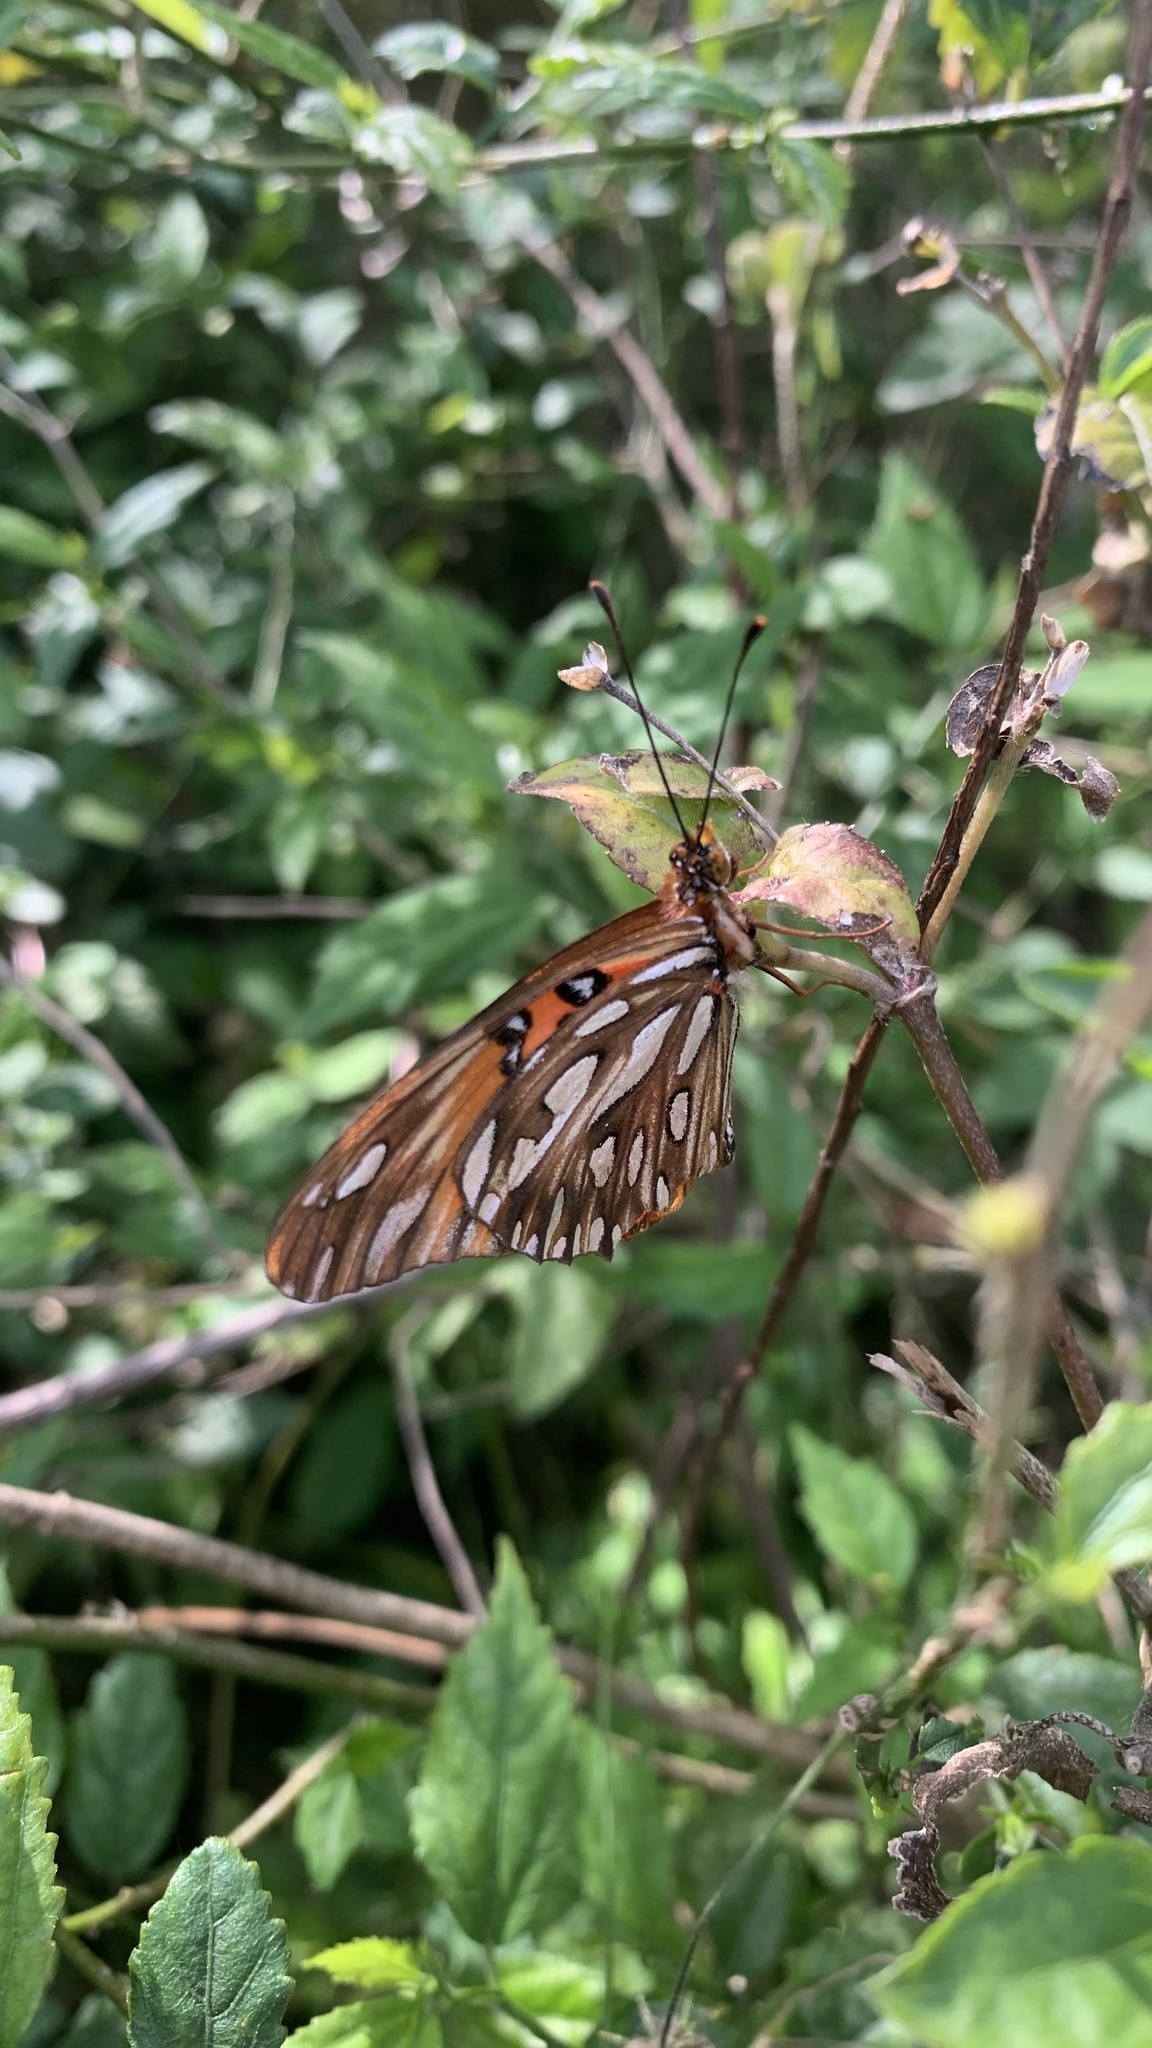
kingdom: Animalia
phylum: Arthropoda
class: Insecta
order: Lepidoptera
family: Nymphalidae
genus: Dione
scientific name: Dione vanillae
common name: Gulf fritillary
